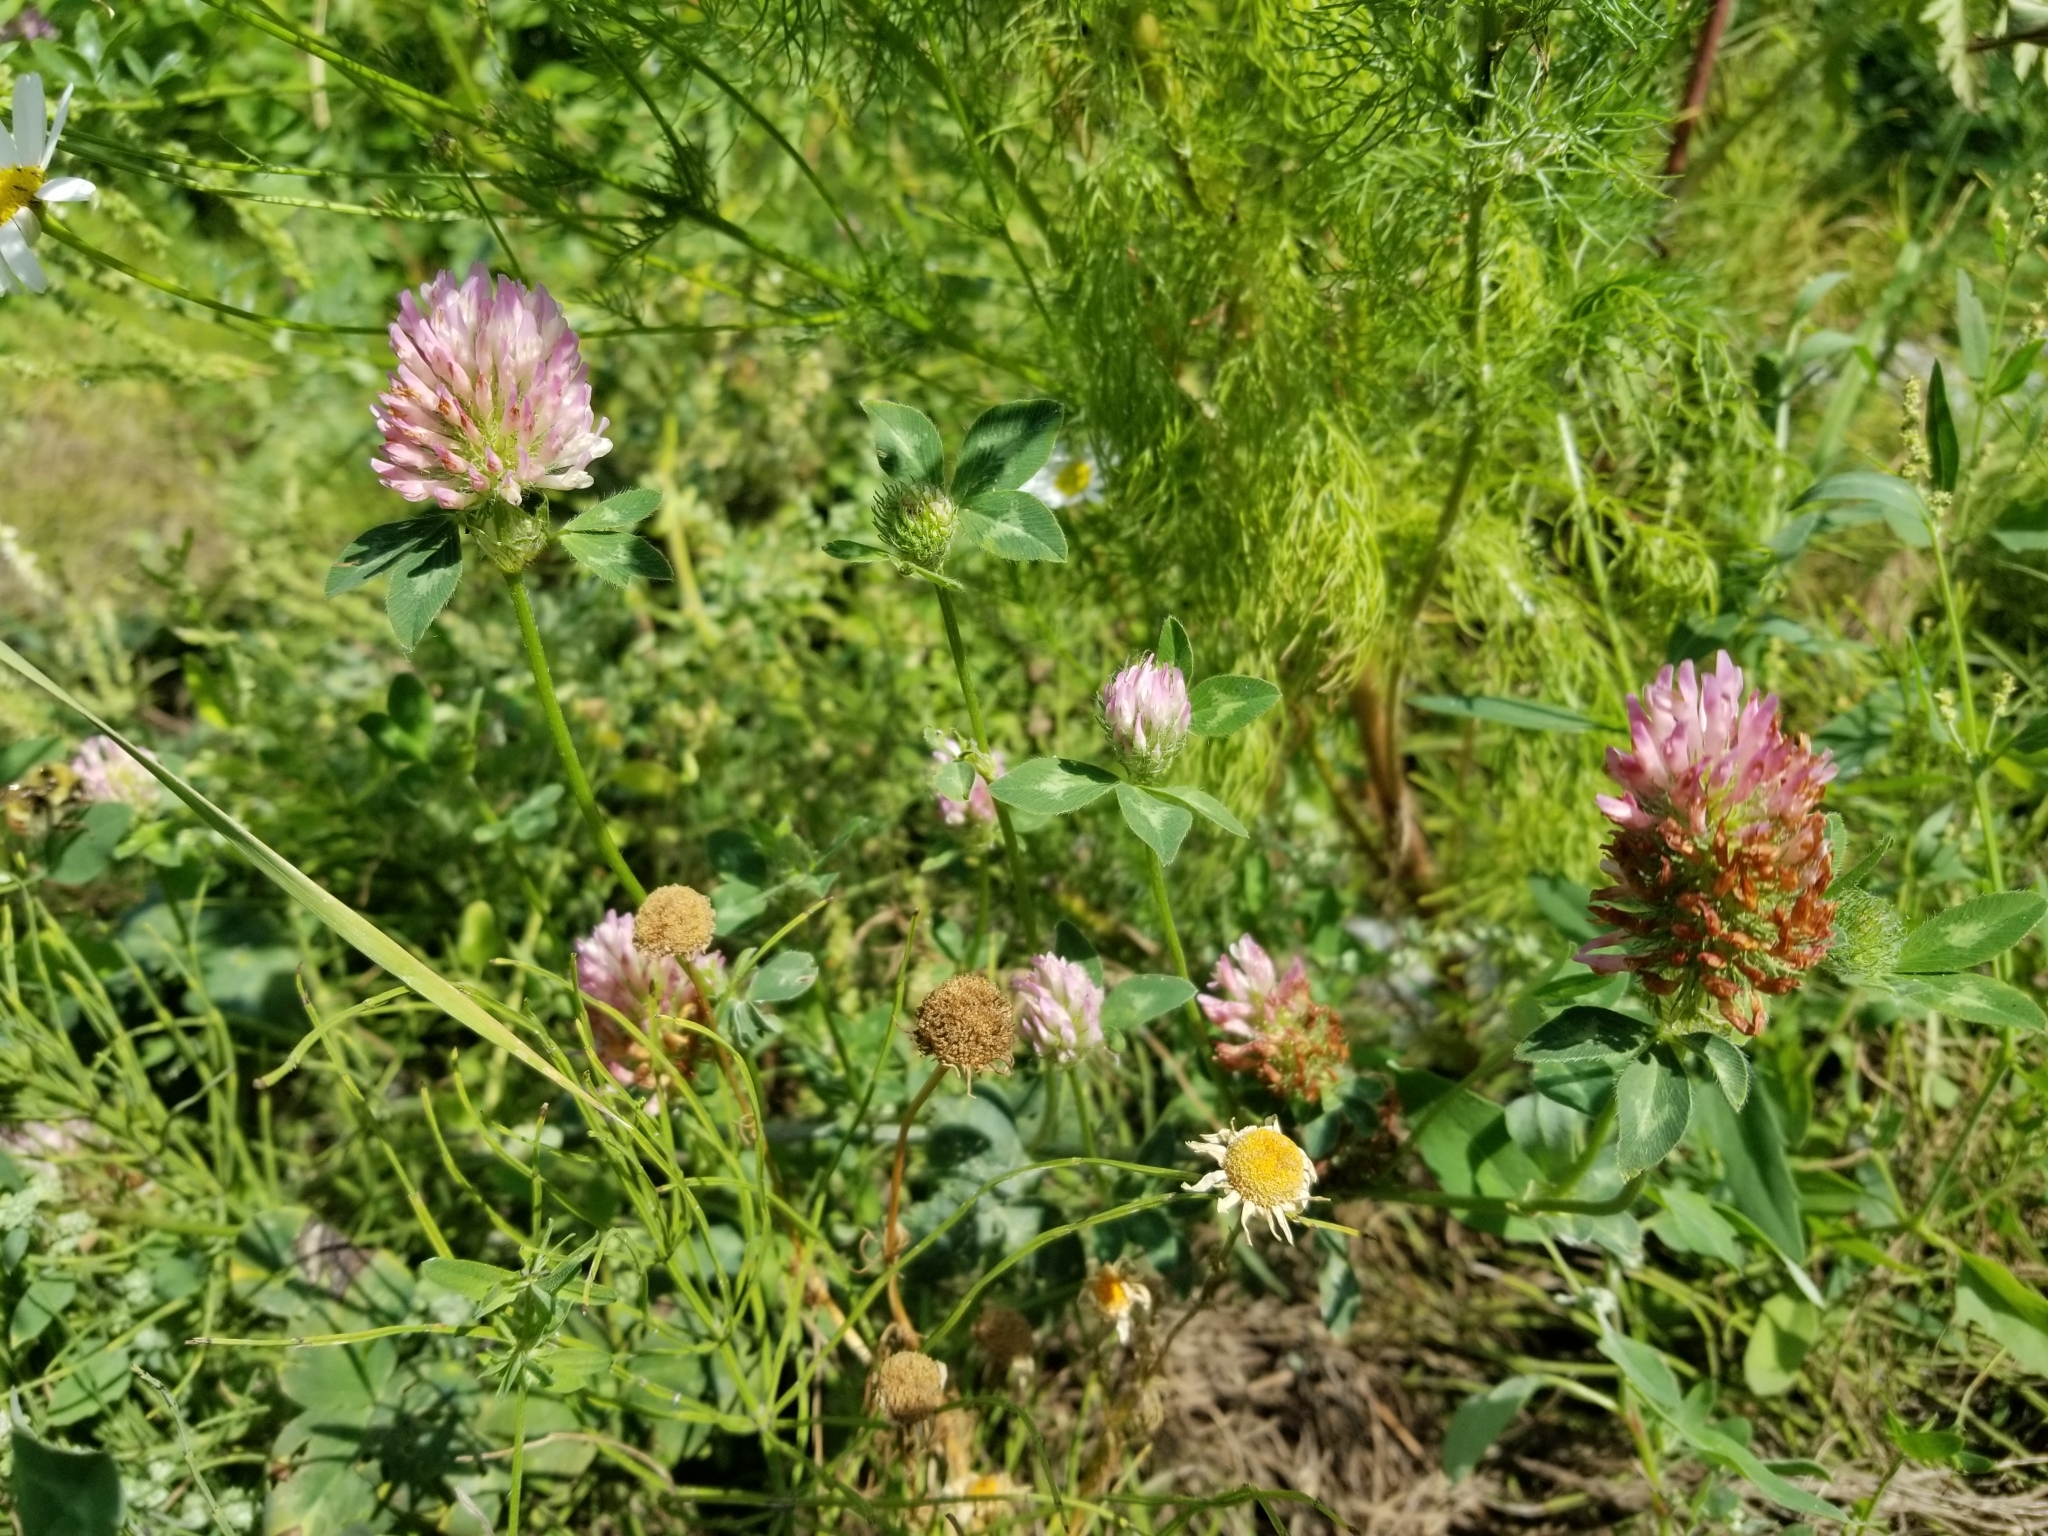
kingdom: Plantae
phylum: Tracheophyta
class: Magnoliopsida
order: Fabales
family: Fabaceae
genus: Trifolium
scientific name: Trifolium pratense
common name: Red clover
